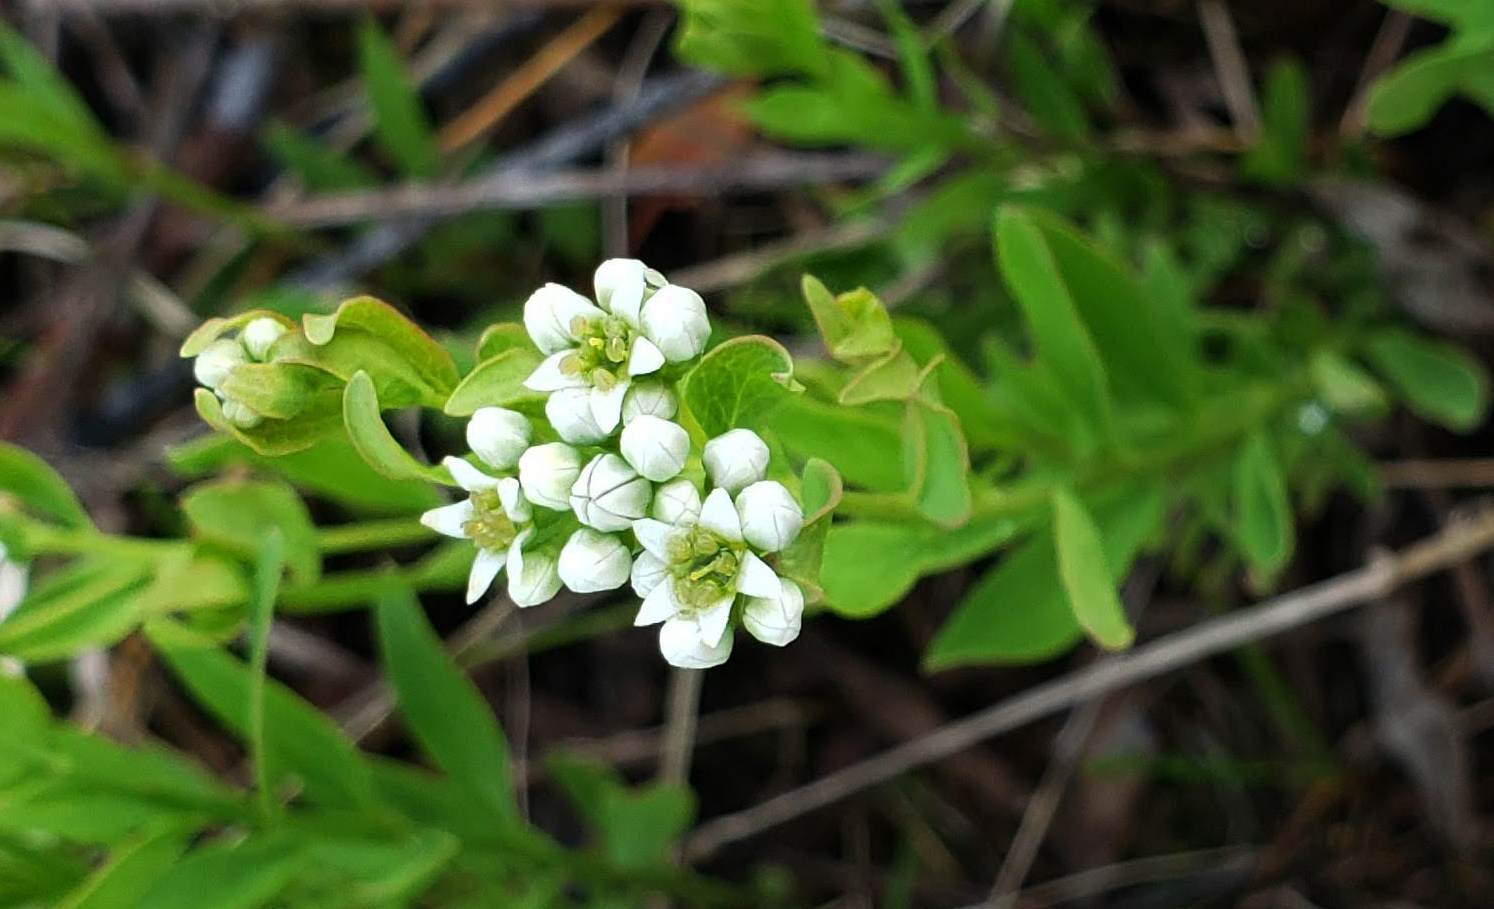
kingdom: Plantae
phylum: Tracheophyta
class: Magnoliopsida
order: Santalales
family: Comandraceae
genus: Comandra
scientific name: Comandra umbellata
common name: Bastard toadflax
